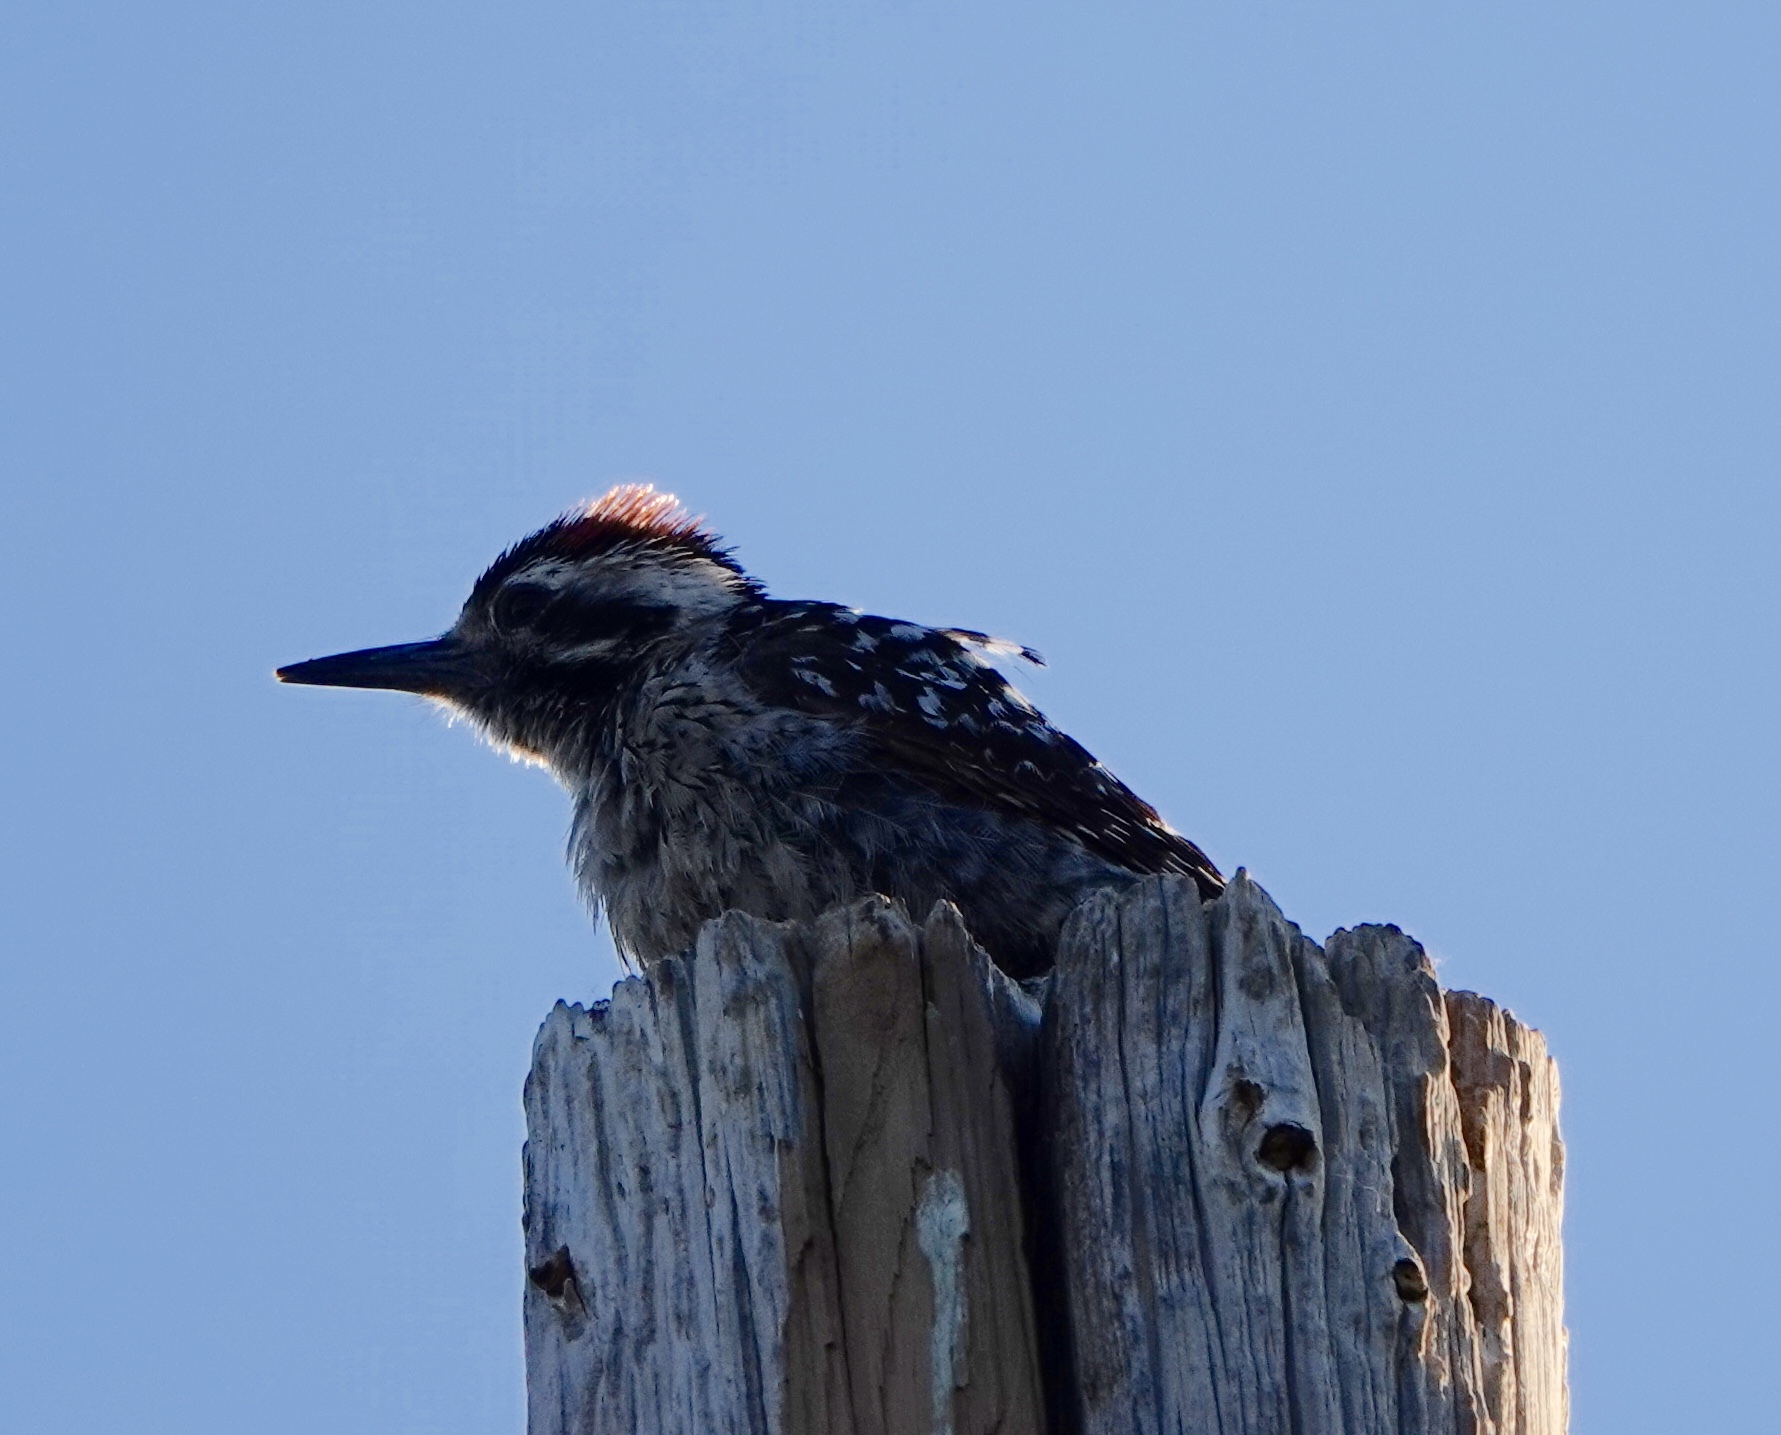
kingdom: Animalia
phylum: Chordata
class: Aves
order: Piciformes
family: Picidae
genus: Dryobates
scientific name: Dryobates scalaris
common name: Ladder-backed woodpecker
